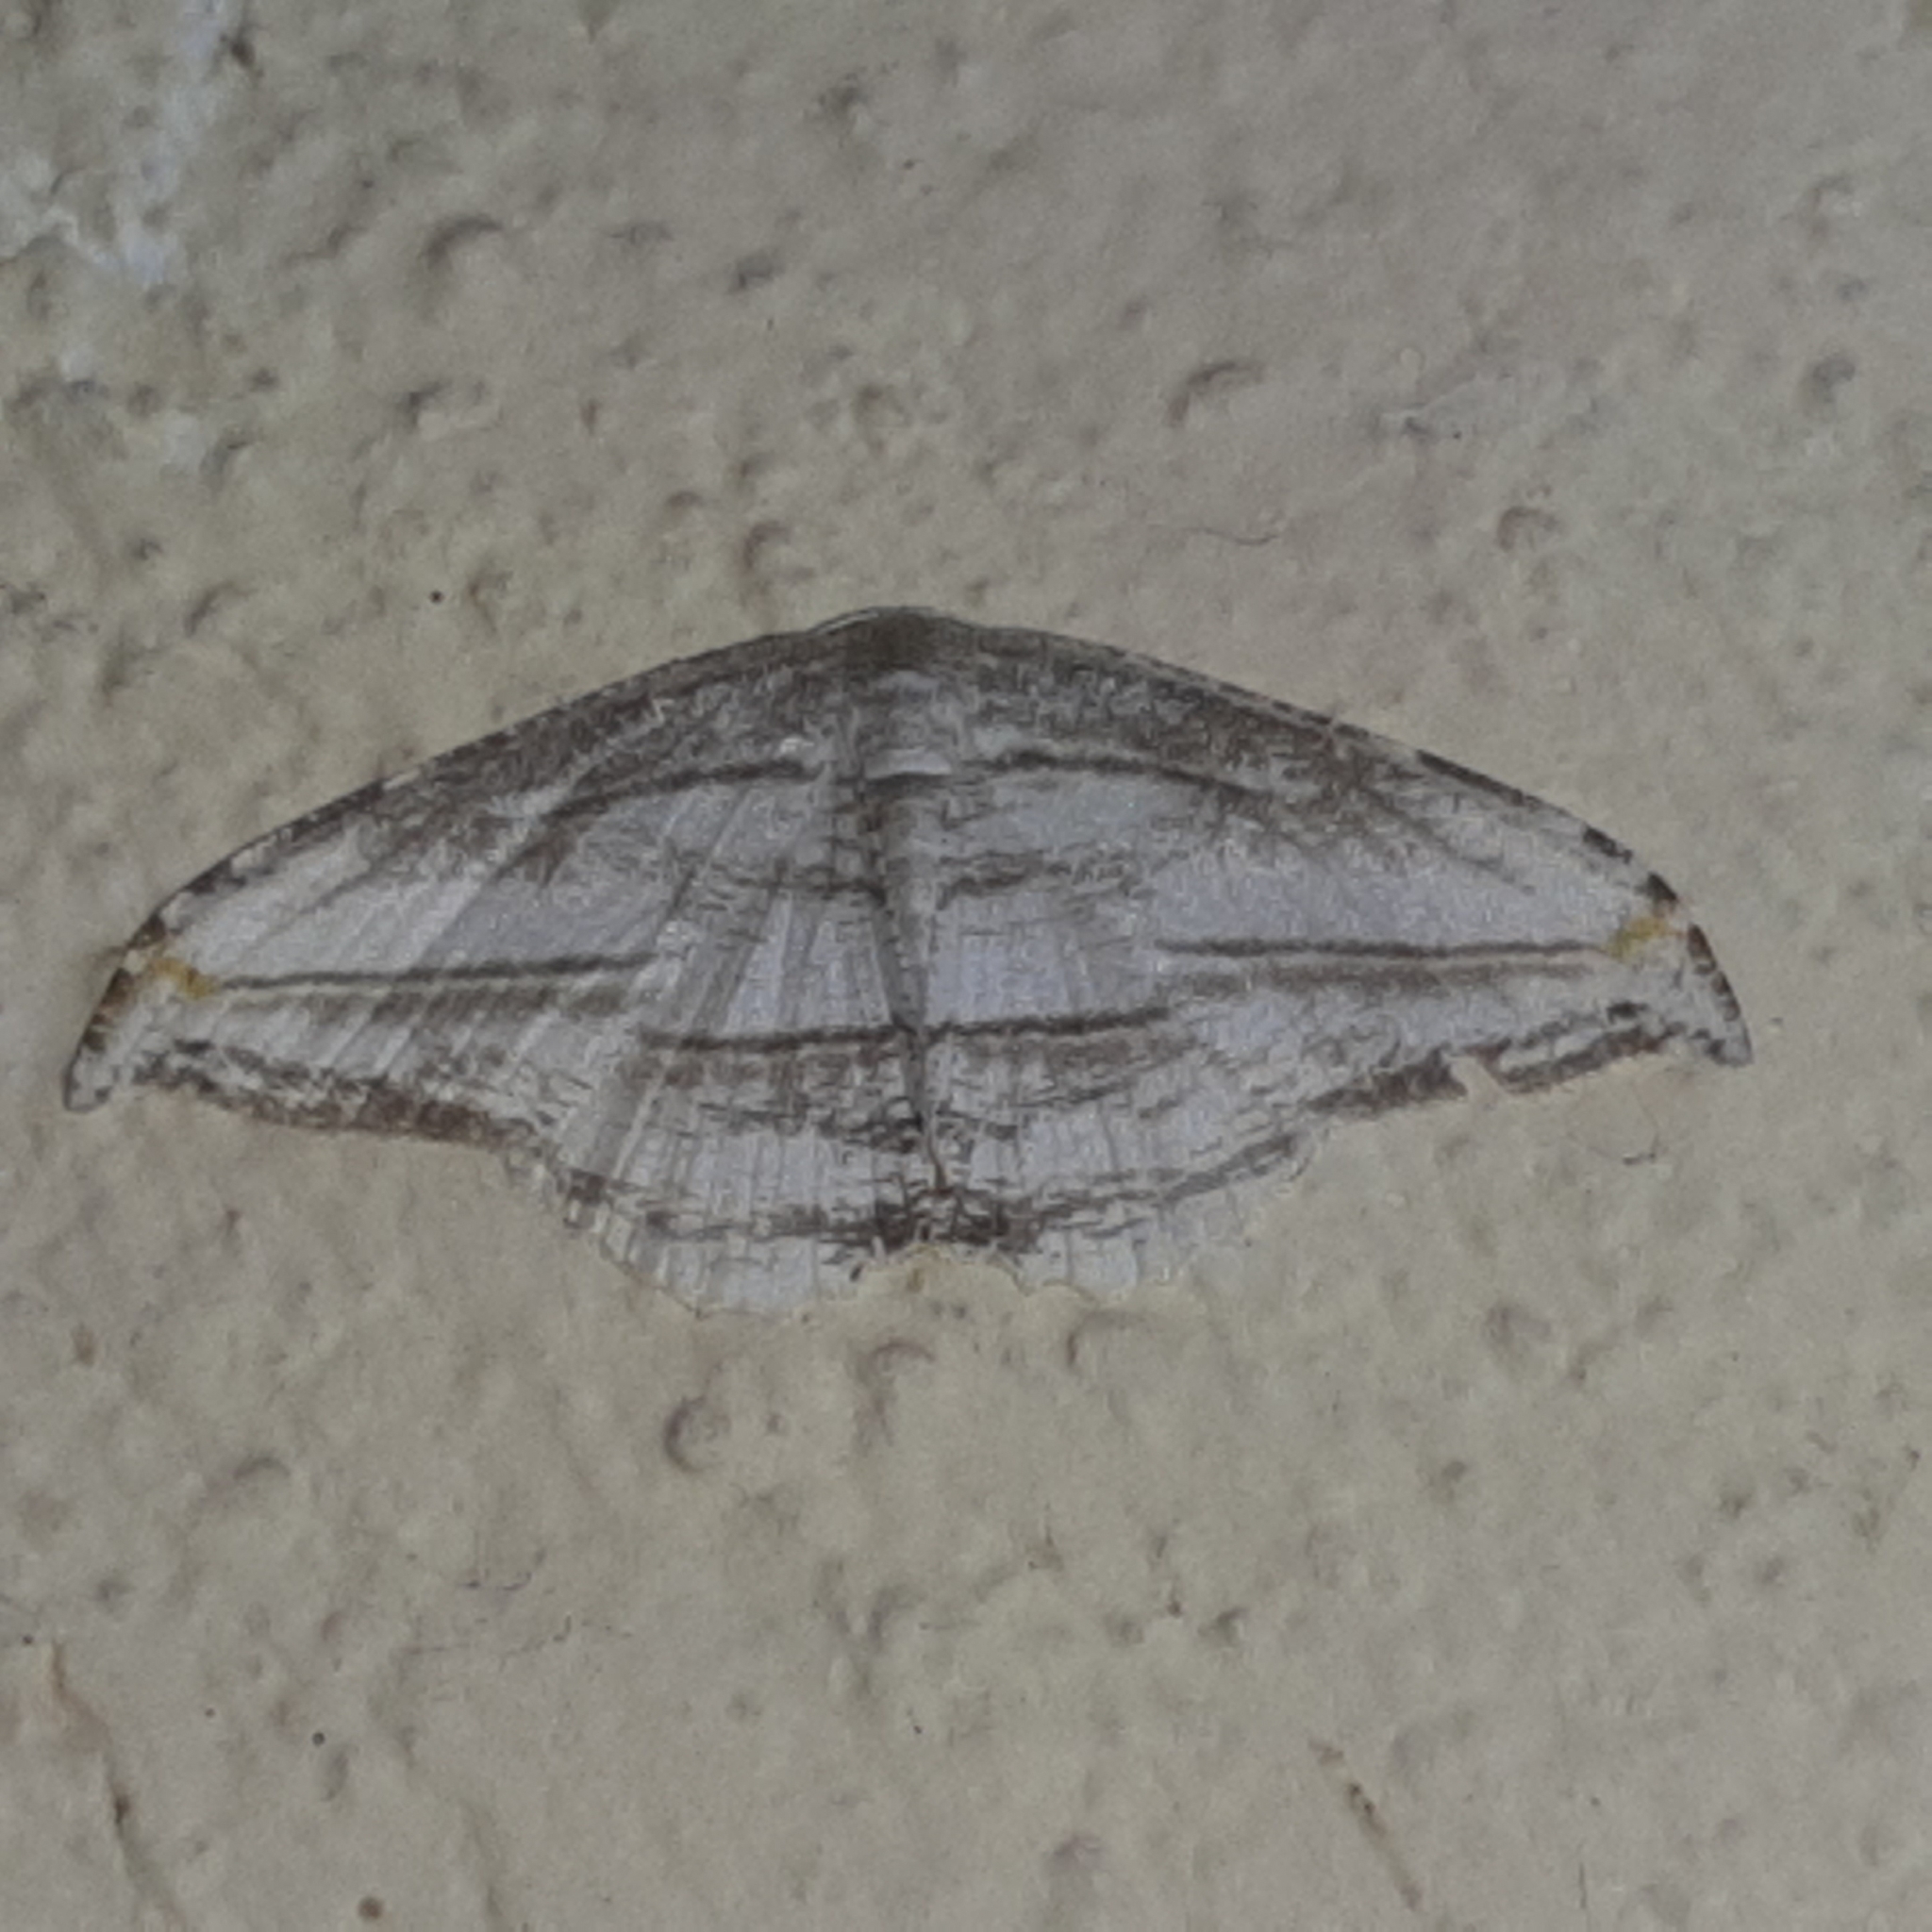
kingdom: Animalia
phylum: Arthropoda
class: Insecta
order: Lepidoptera
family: Uraniidae
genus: Morphomima
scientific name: Morphomima fulvitacta
